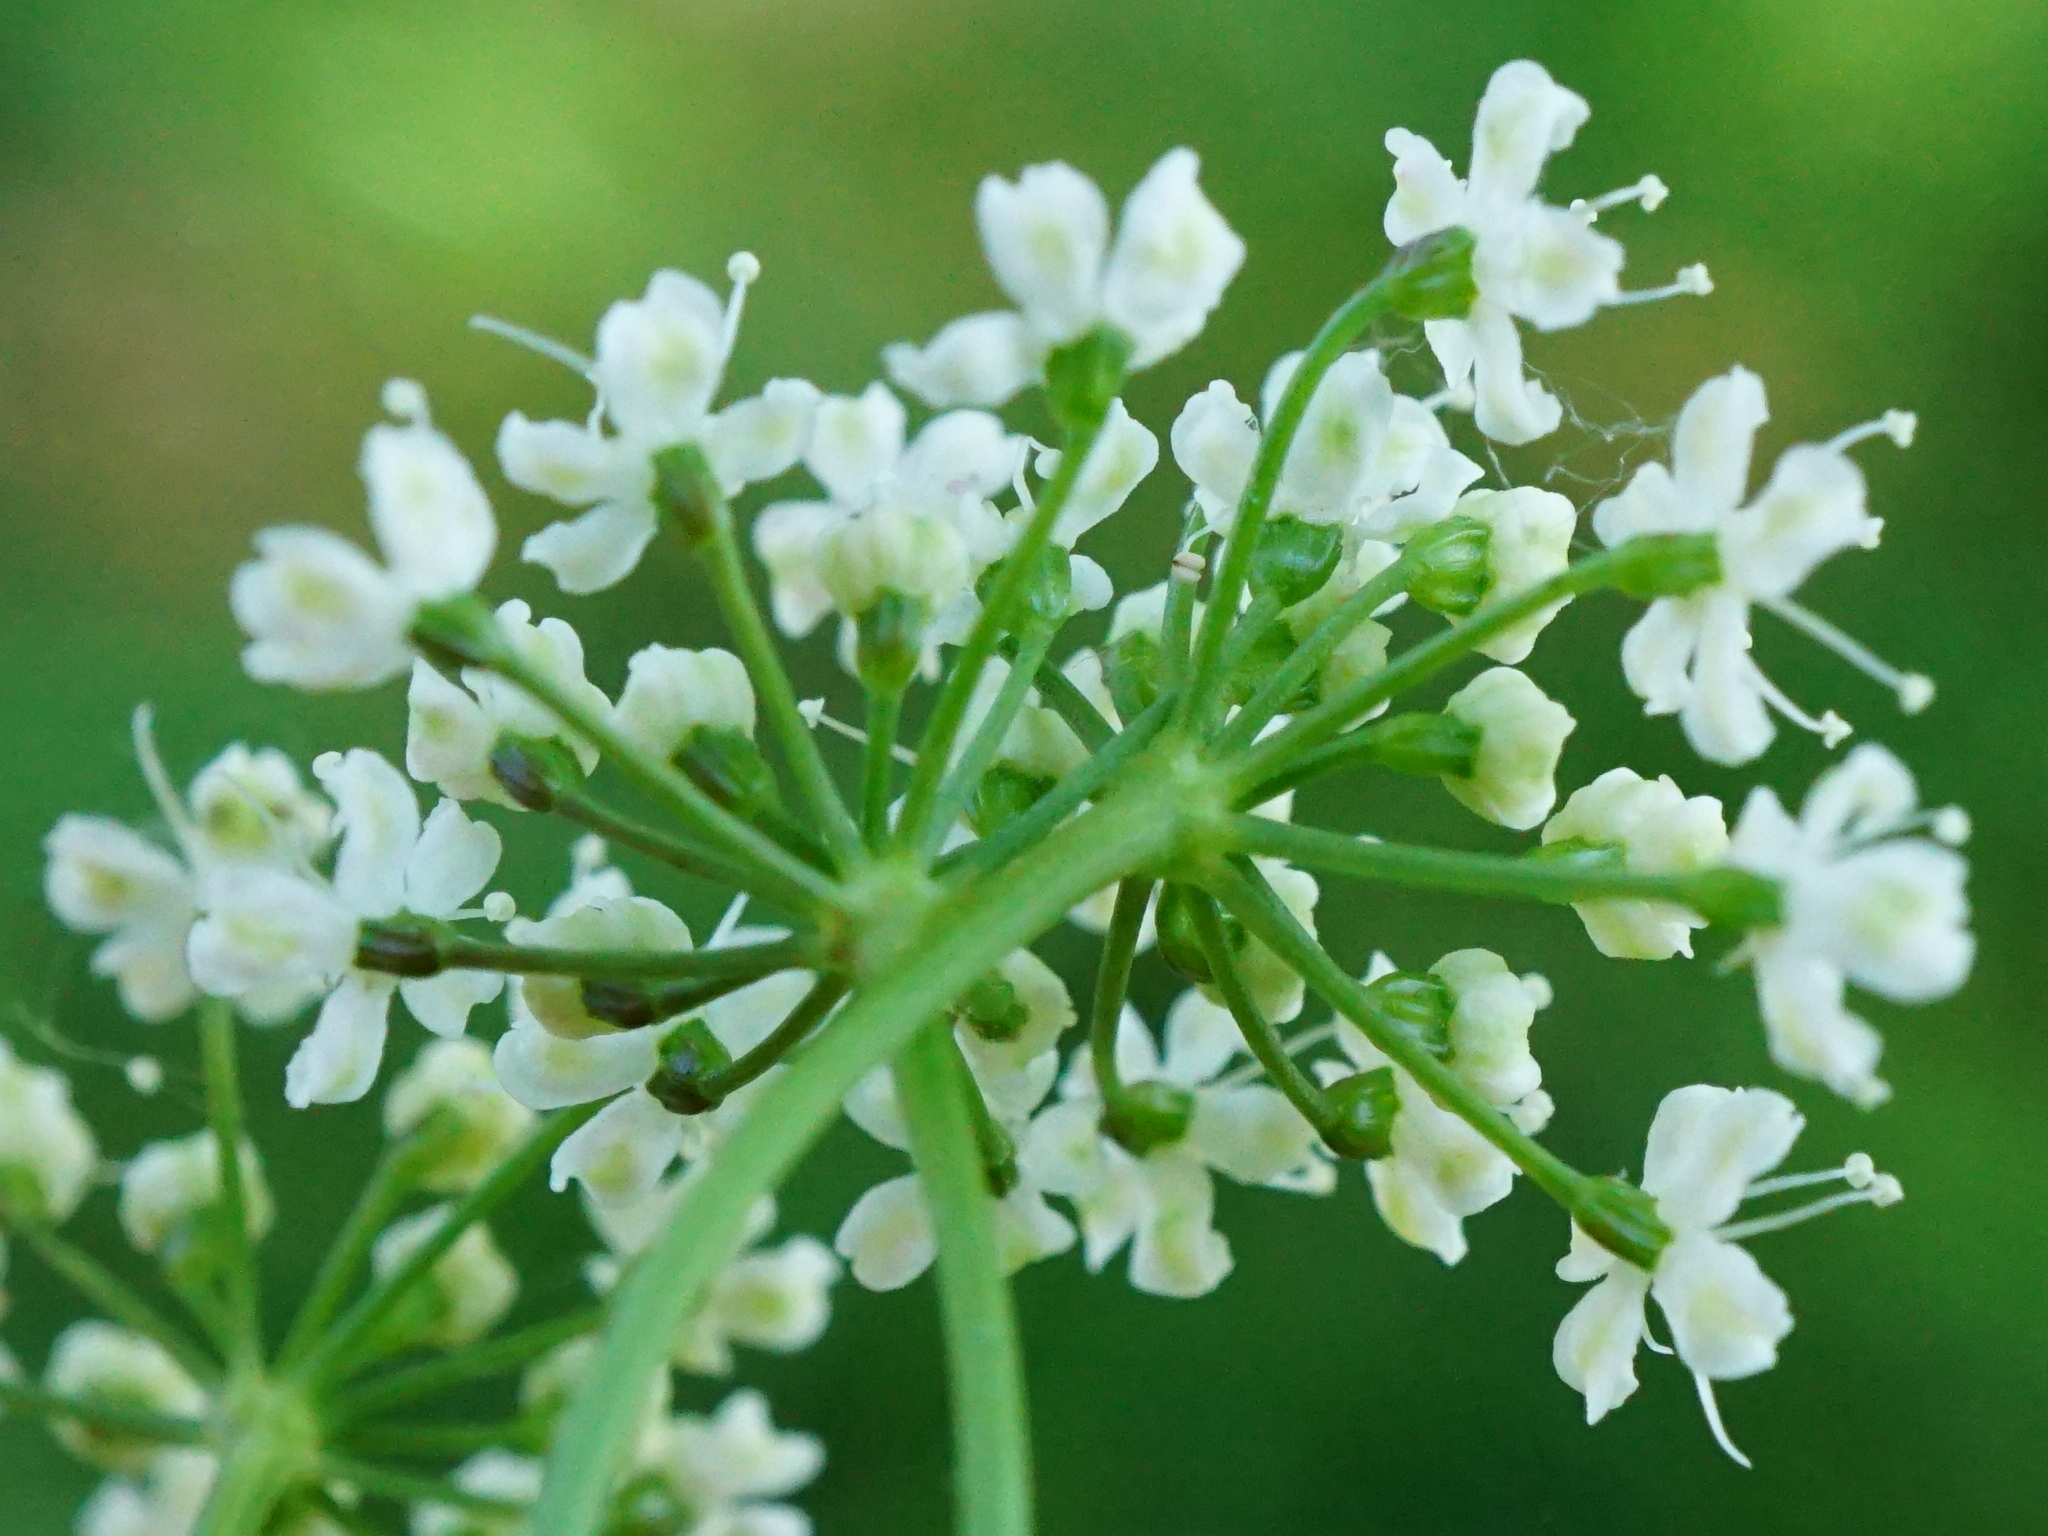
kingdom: Plantae
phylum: Tracheophyta
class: Magnoliopsida
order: Apiales
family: Apiaceae
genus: Pimpinella
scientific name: Pimpinella major
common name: Greater burnet-saxifrage
